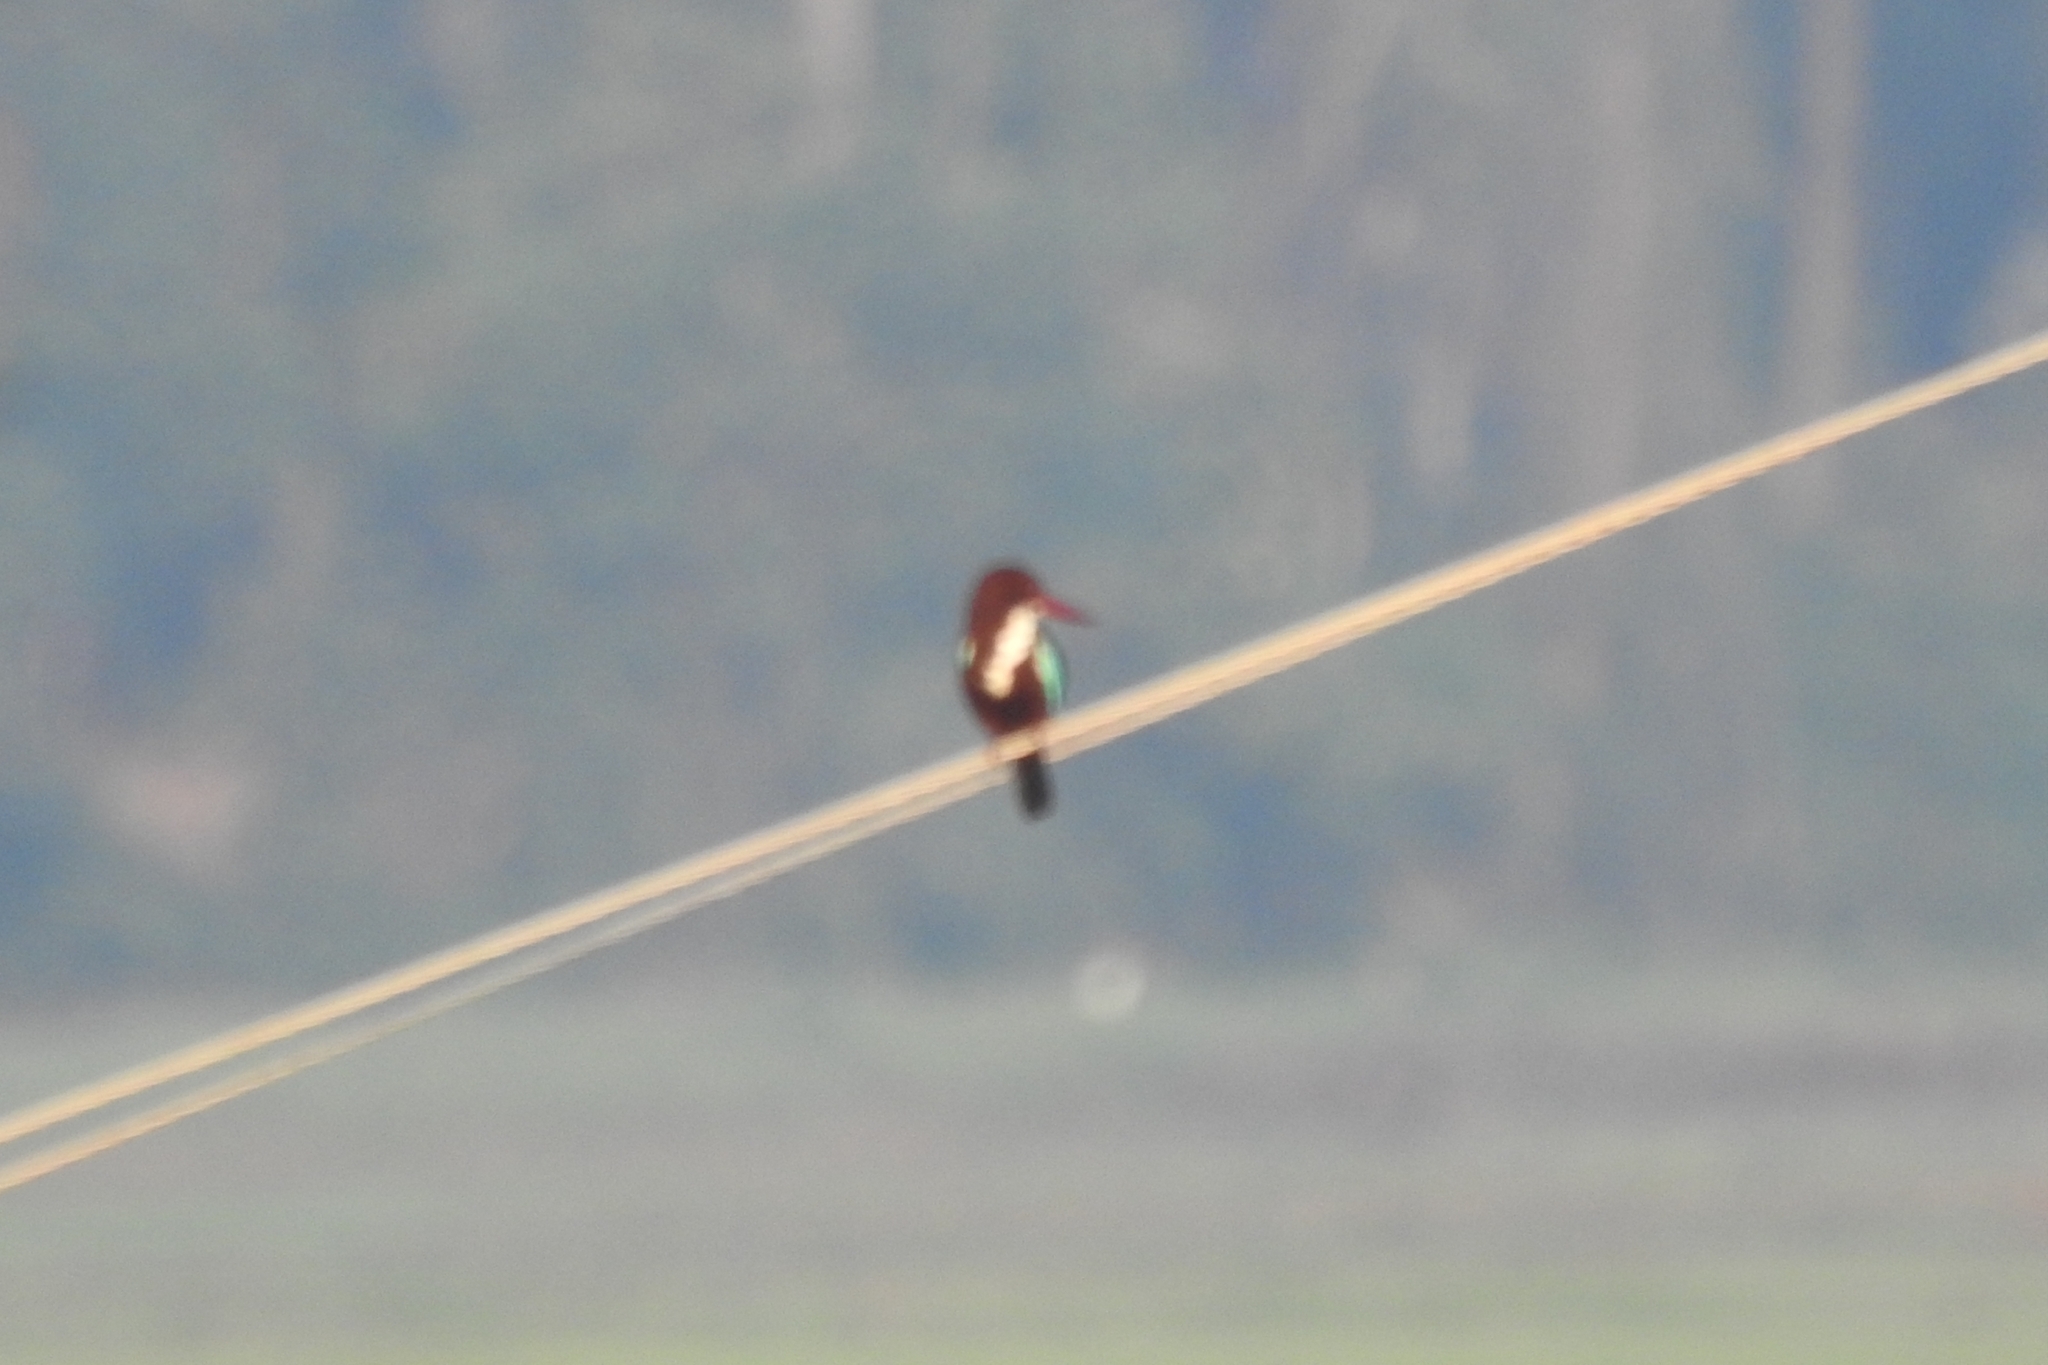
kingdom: Animalia
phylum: Chordata
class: Aves
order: Coraciiformes
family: Alcedinidae
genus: Halcyon
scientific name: Halcyon smyrnensis
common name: White-throated kingfisher
